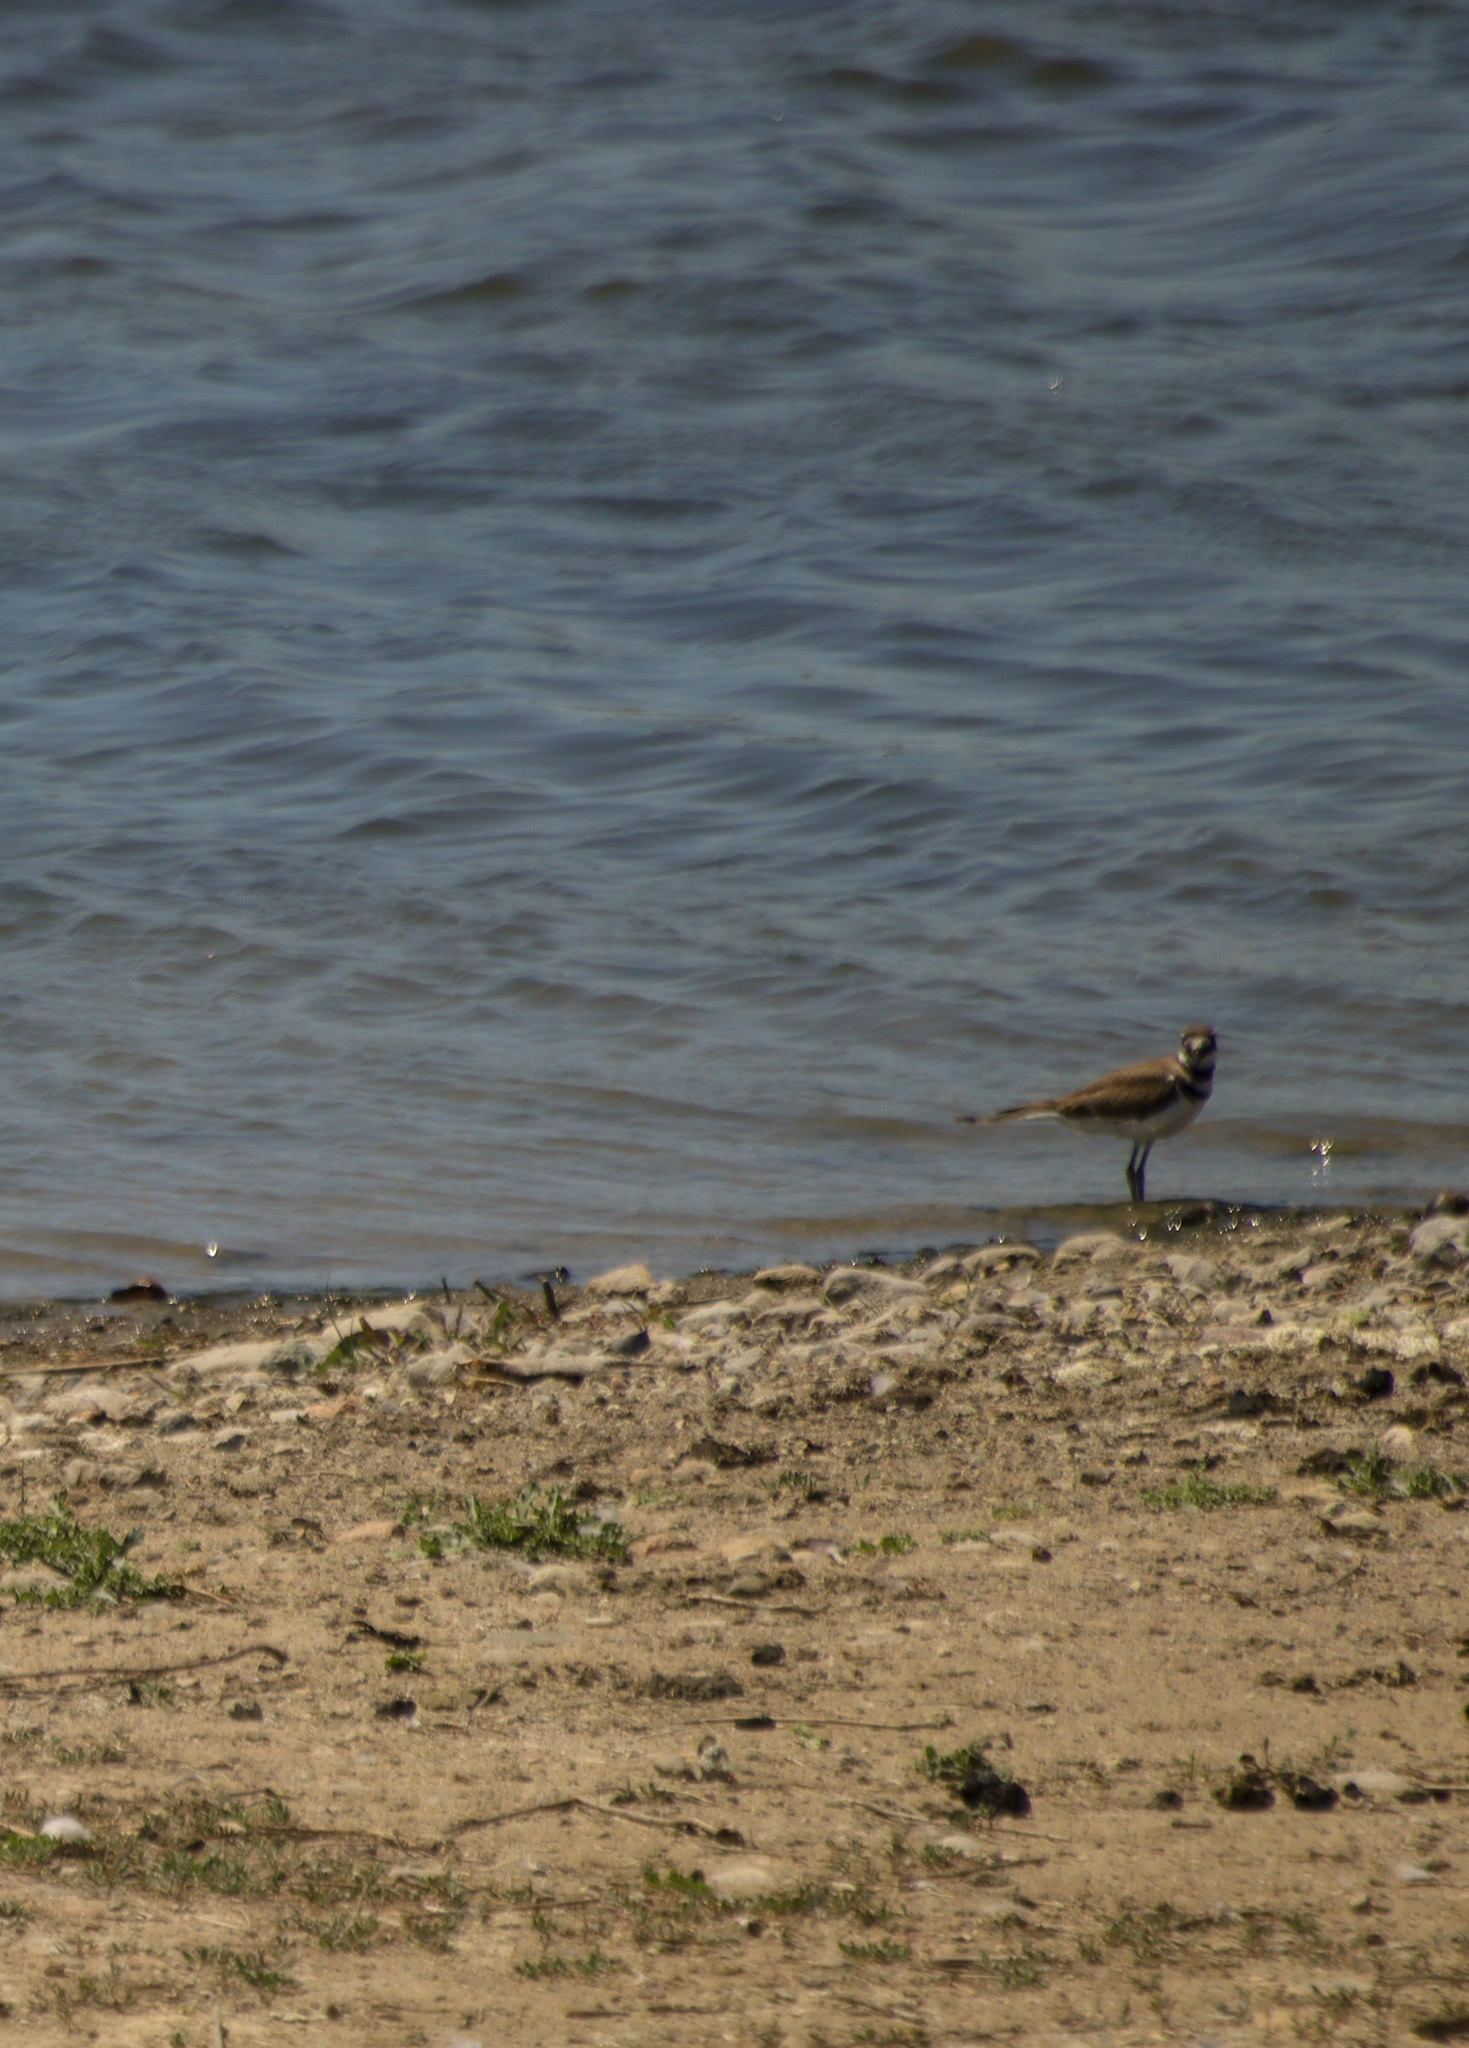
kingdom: Animalia
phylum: Chordata
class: Aves
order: Charadriiformes
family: Charadriidae
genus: Charadrius
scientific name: Charadrius vociferus
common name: Killdeer
